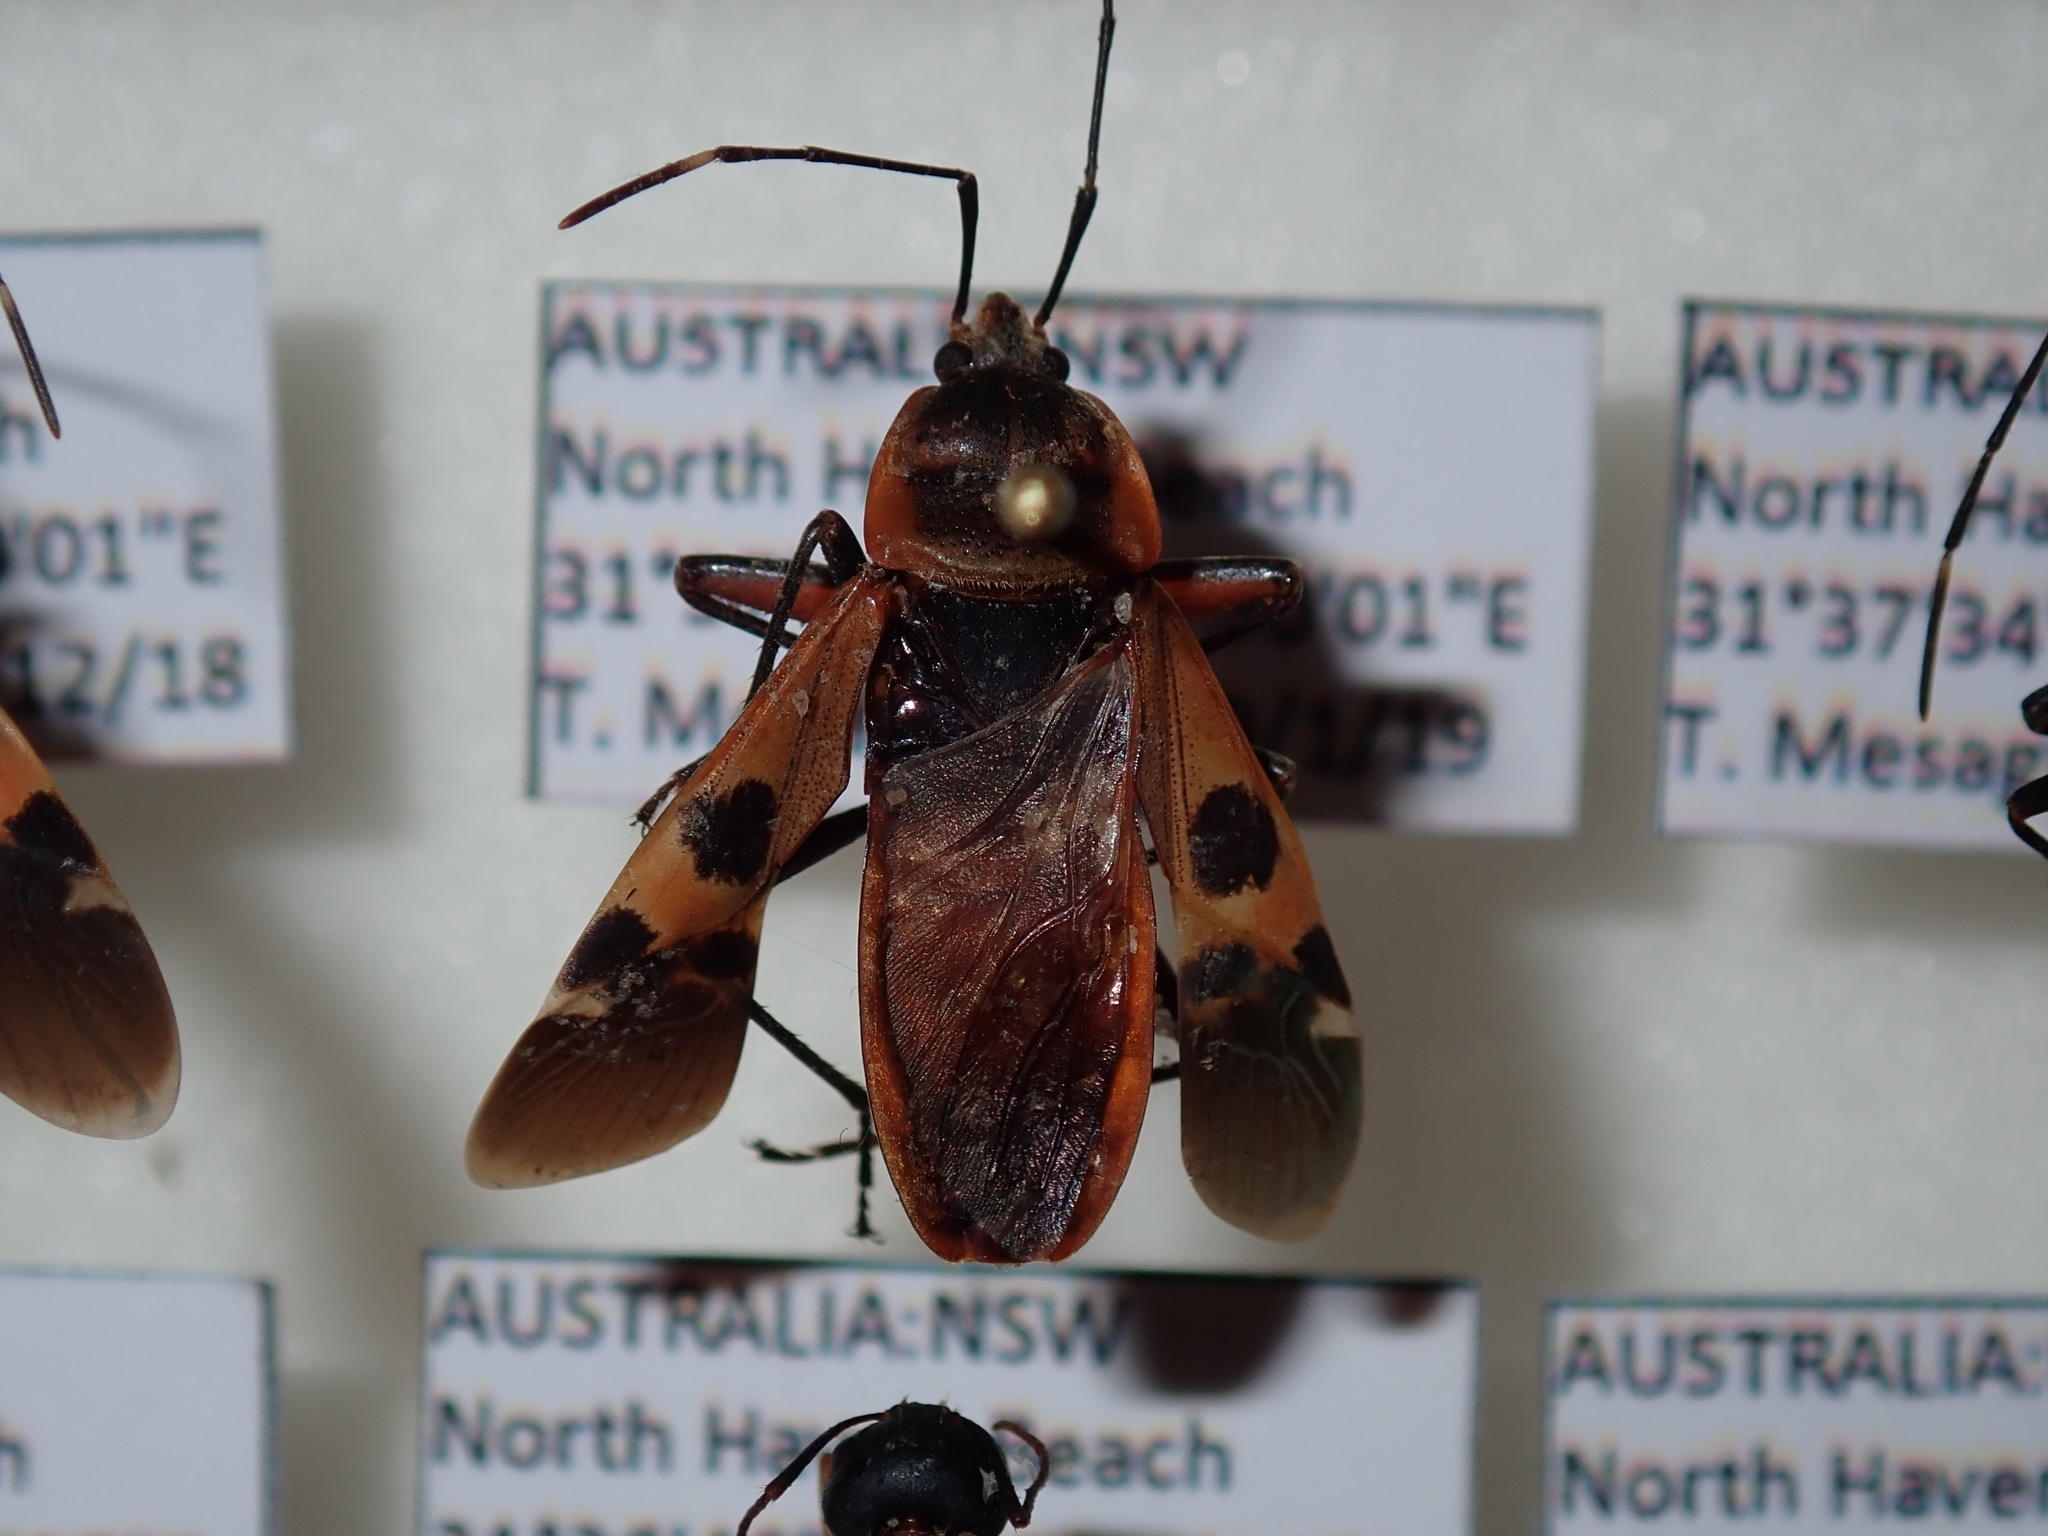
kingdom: Animalia
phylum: Arthropoda
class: Insecta
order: Hemiptera
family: Largidae
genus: Physopelta
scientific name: Physopelta gutta
